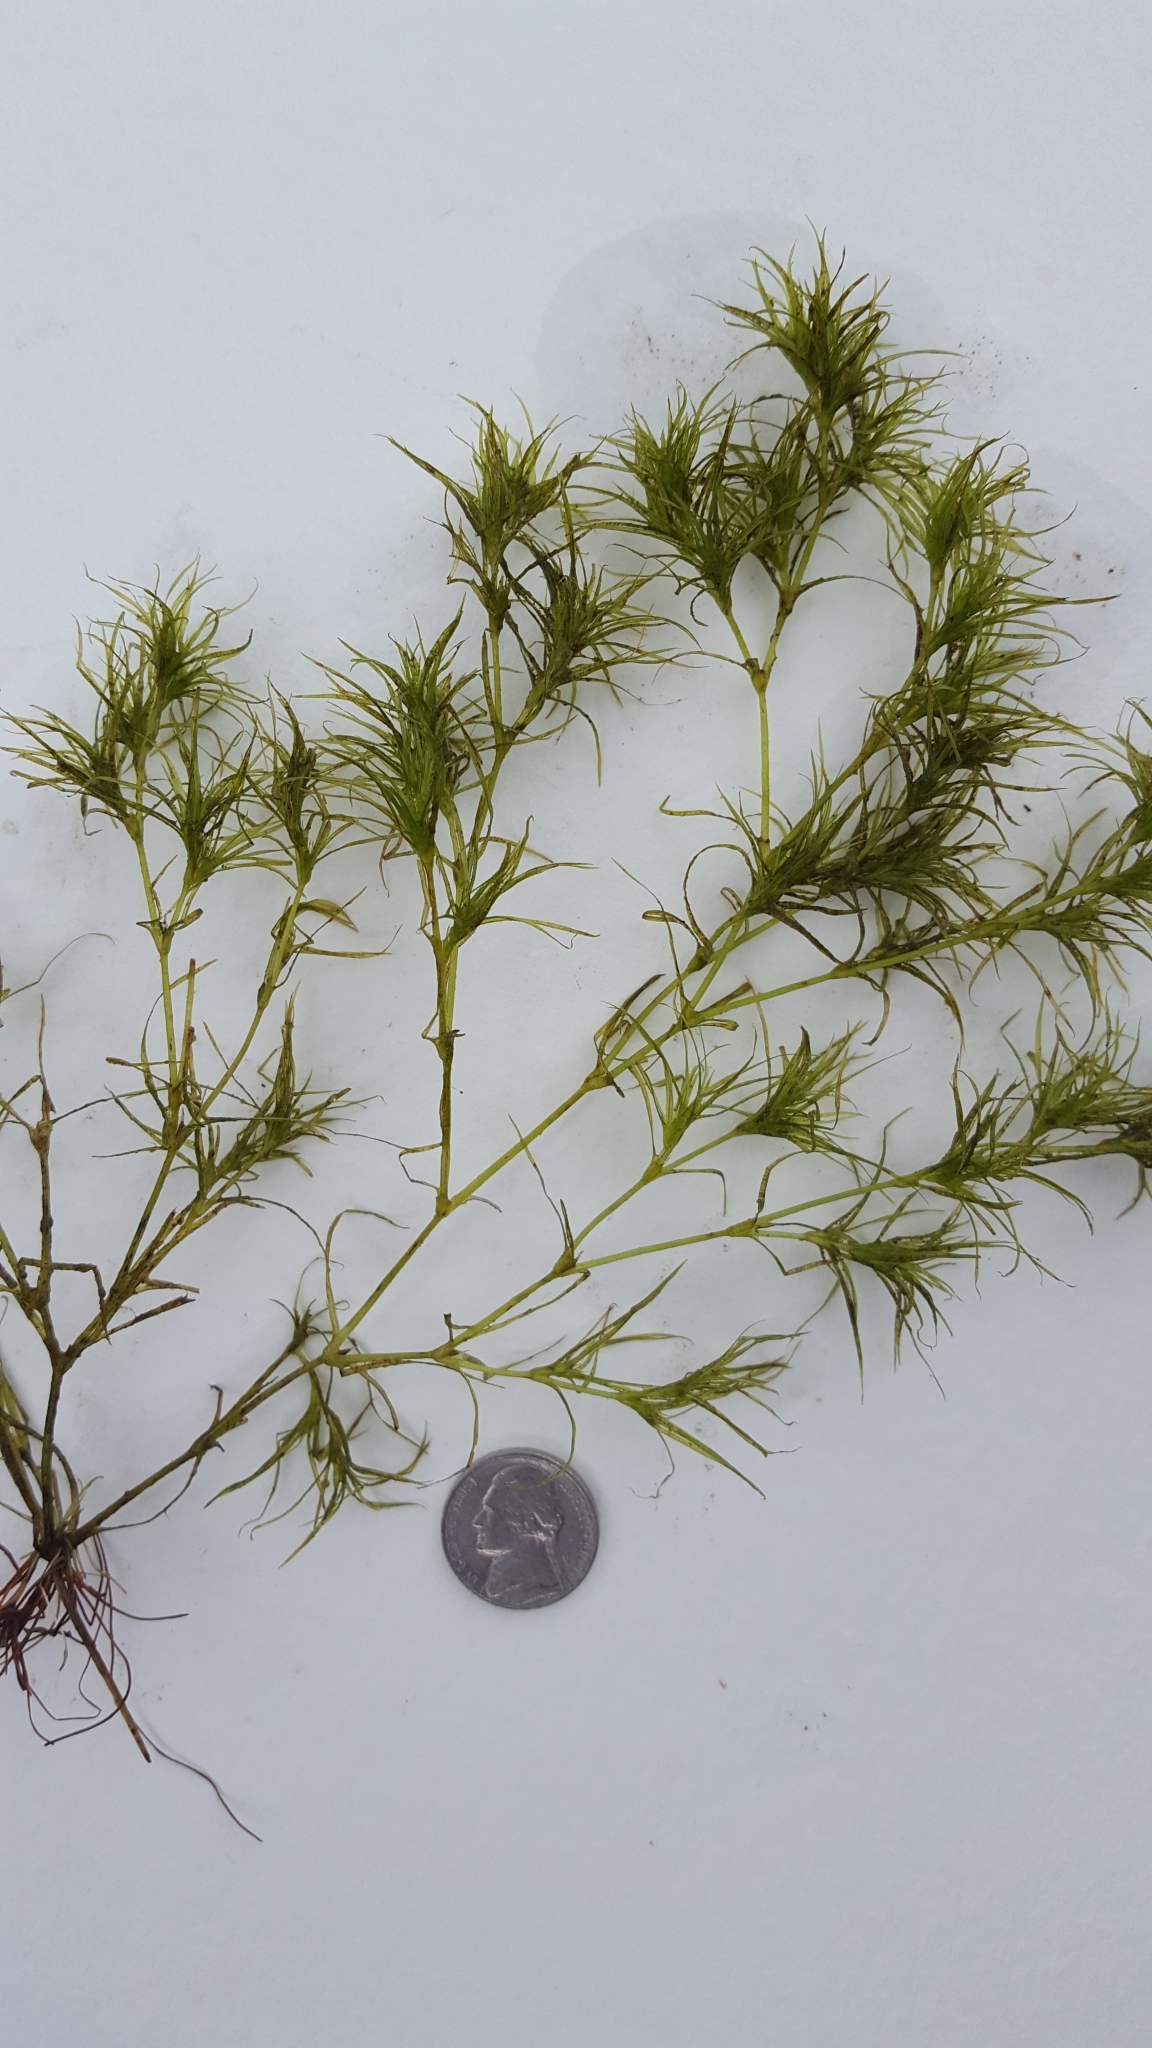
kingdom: Plantae
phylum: Tracheophyta
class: Liliopsida
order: Alismatales
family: Hydrocharitaceae
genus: Najas
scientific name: Najas flexilis
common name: Slender naiad
